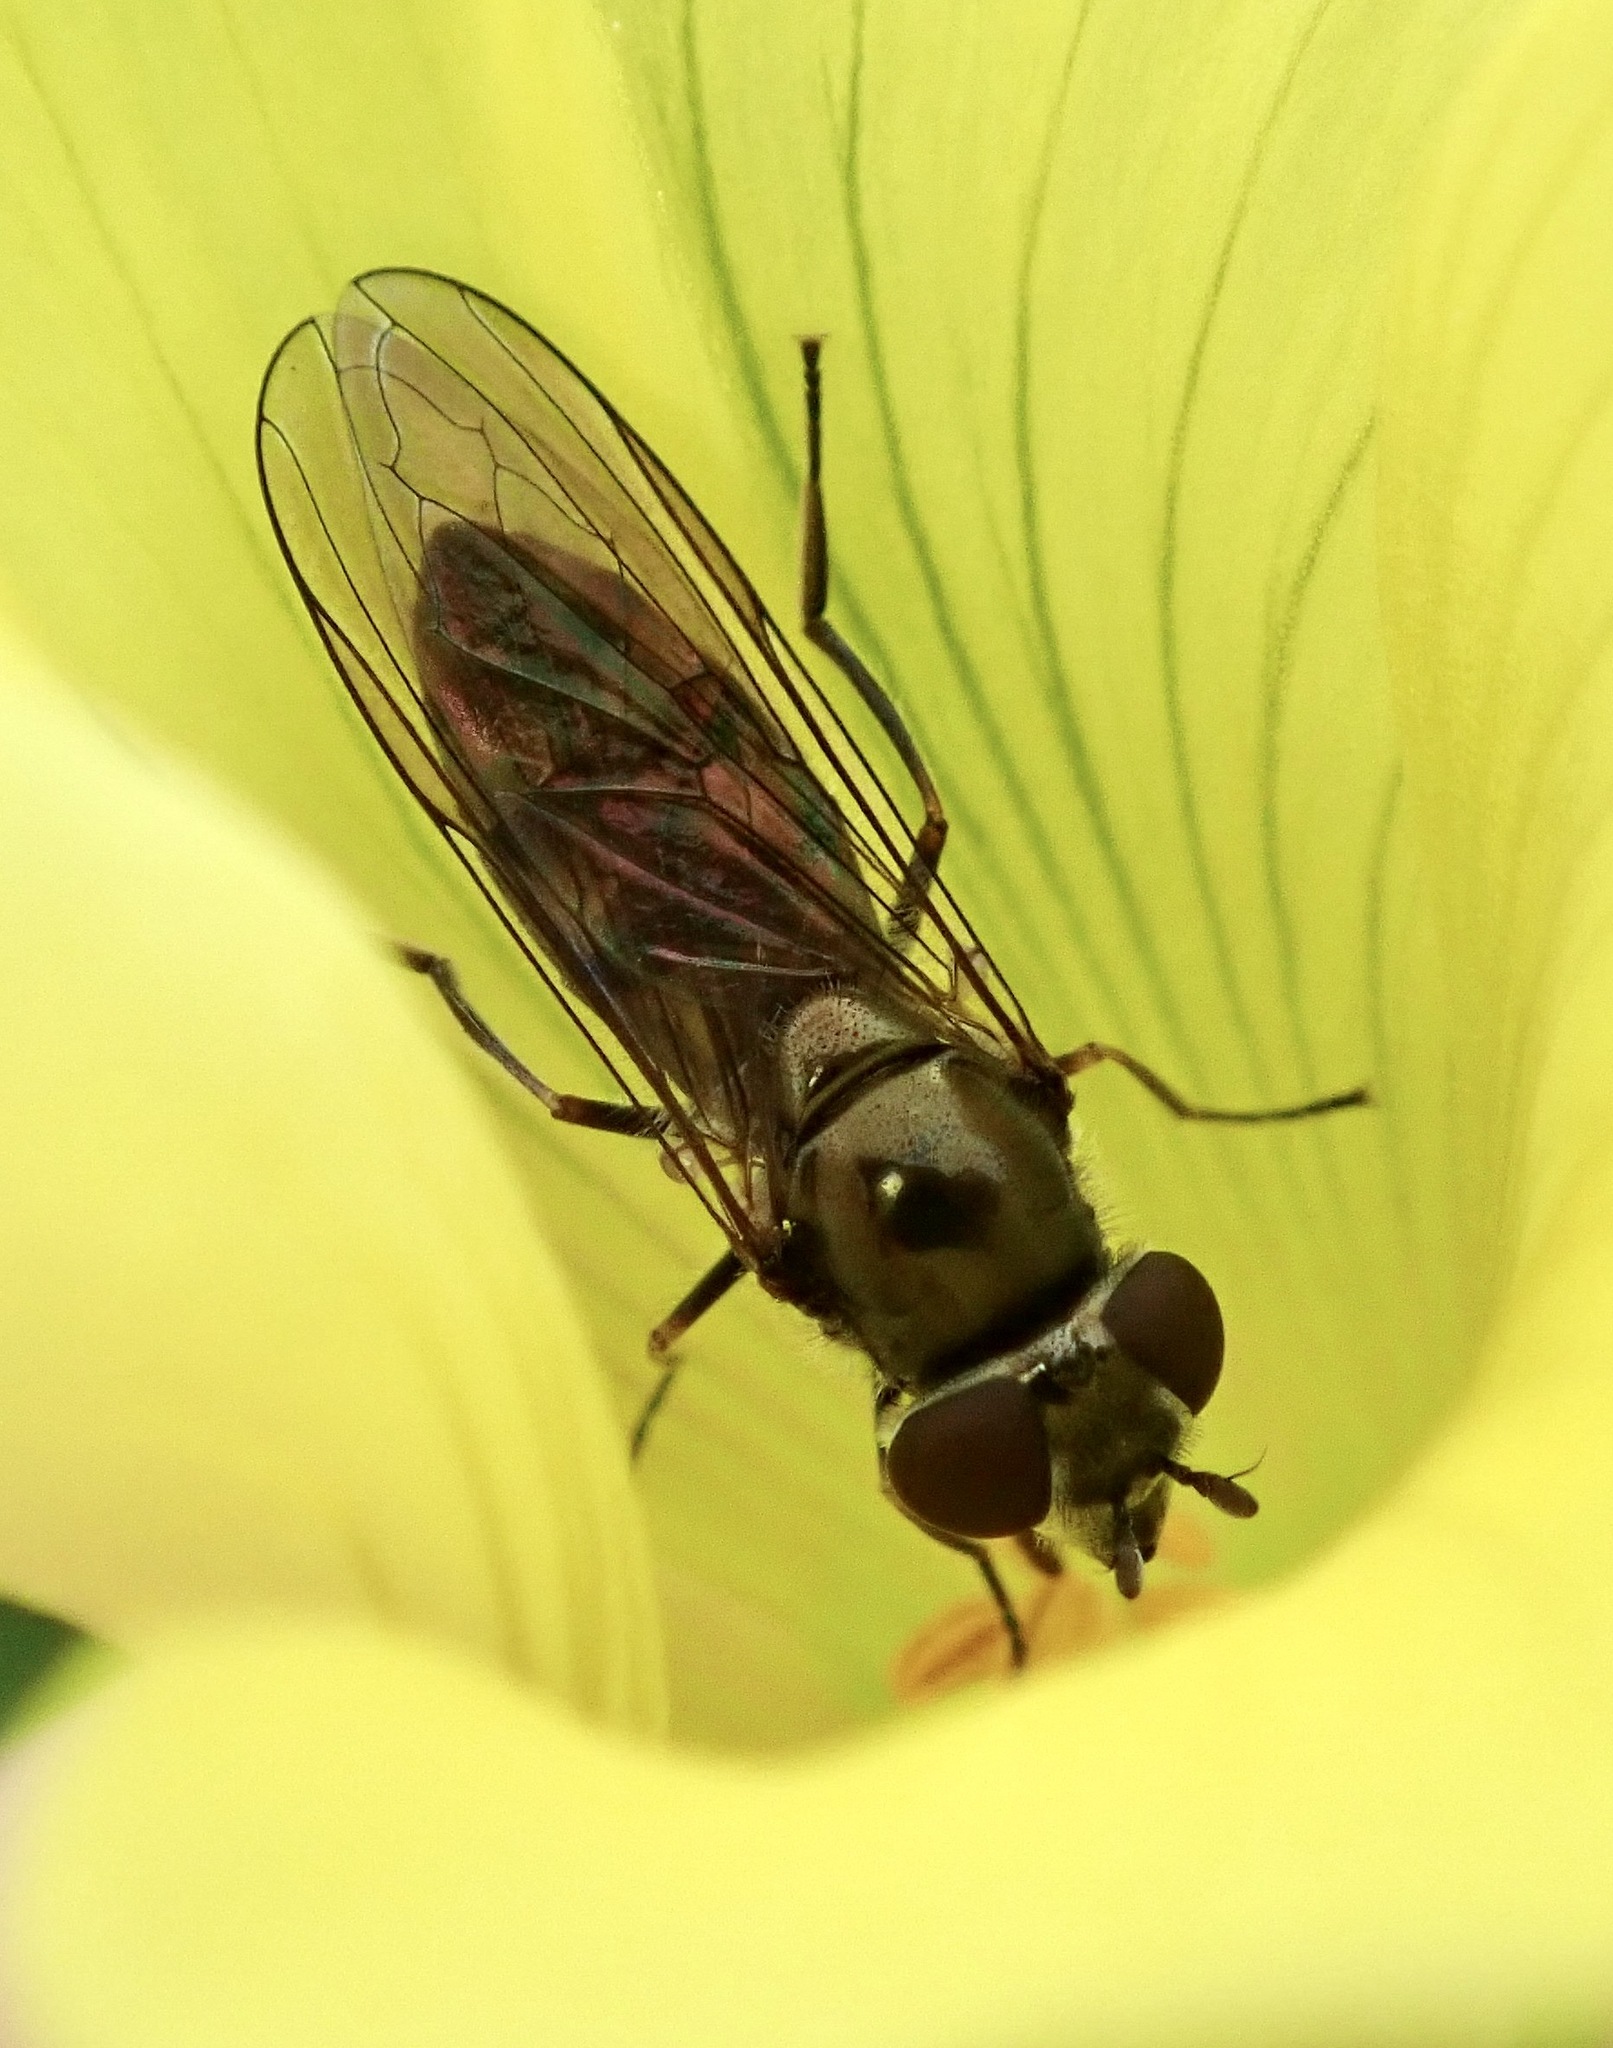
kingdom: Animalia
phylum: Arthropoda
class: Insecta
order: Diptera
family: Syrphidae
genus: Platycheirus
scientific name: Platycheirus trichopus
